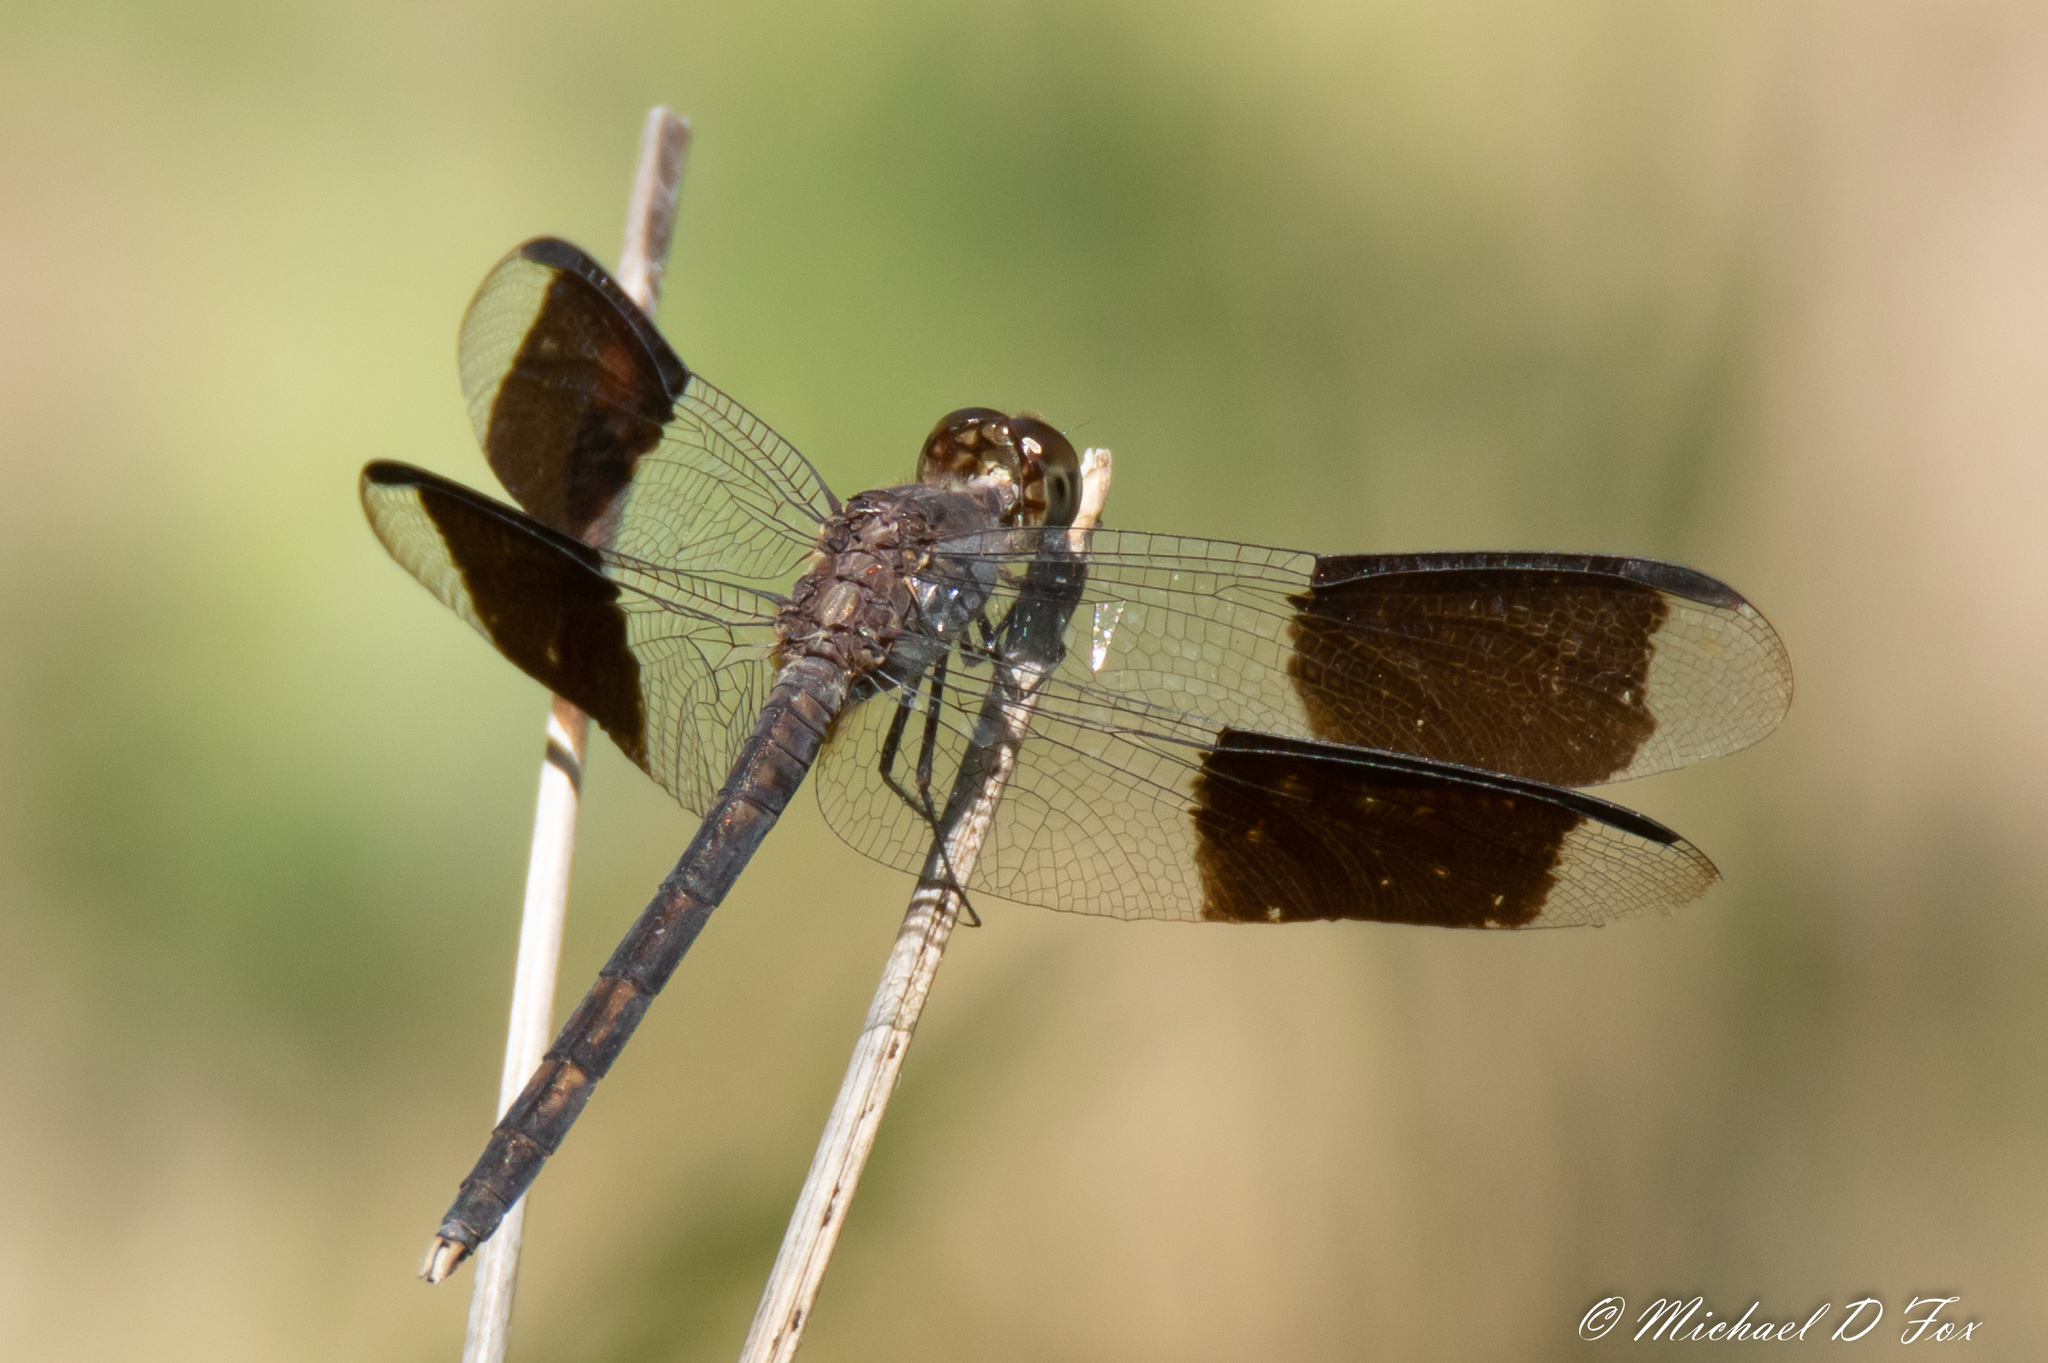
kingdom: Animalia
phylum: Arthropoda
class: Insecta
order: Odonata
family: Libellulidae
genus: Erythrodiplax
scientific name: Erythrodiplax umbrata
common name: Band-winged dragonlet
